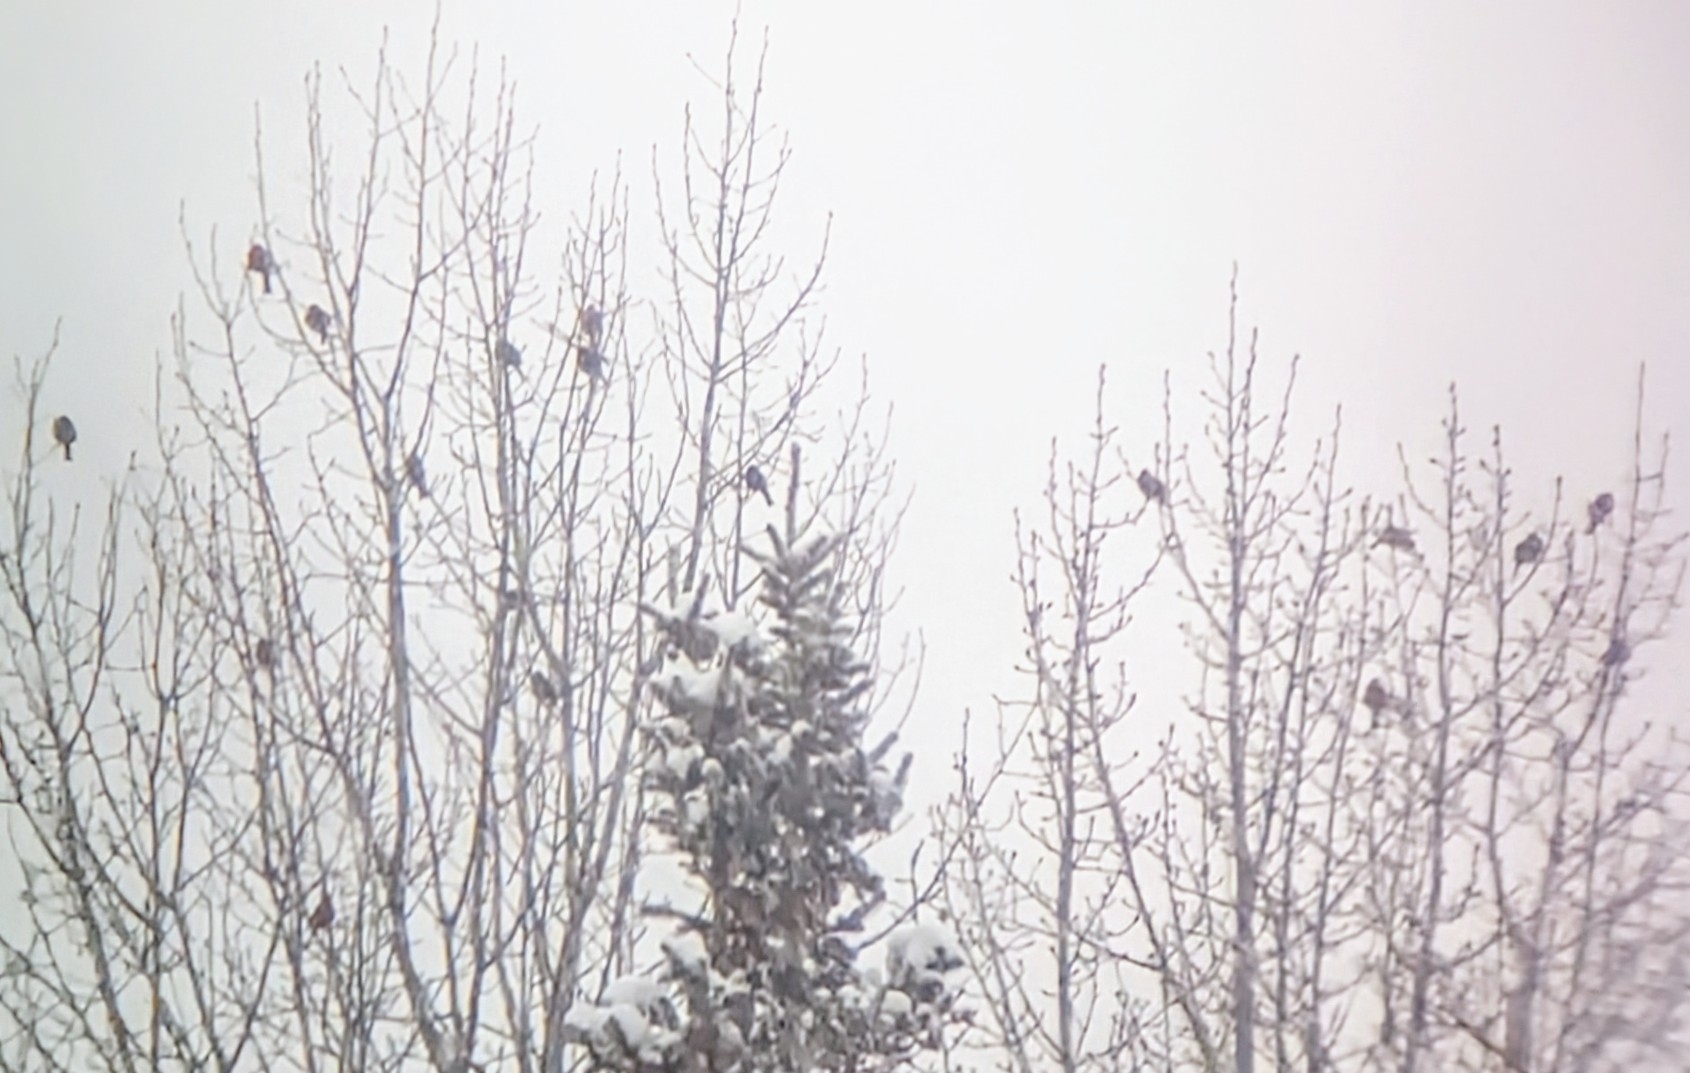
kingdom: Animalia
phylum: Chordata
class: Aves
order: Passeriformes
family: Fringillidae
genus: Pinicola
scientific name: Pinicola enucleator
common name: Pine grosbeak
